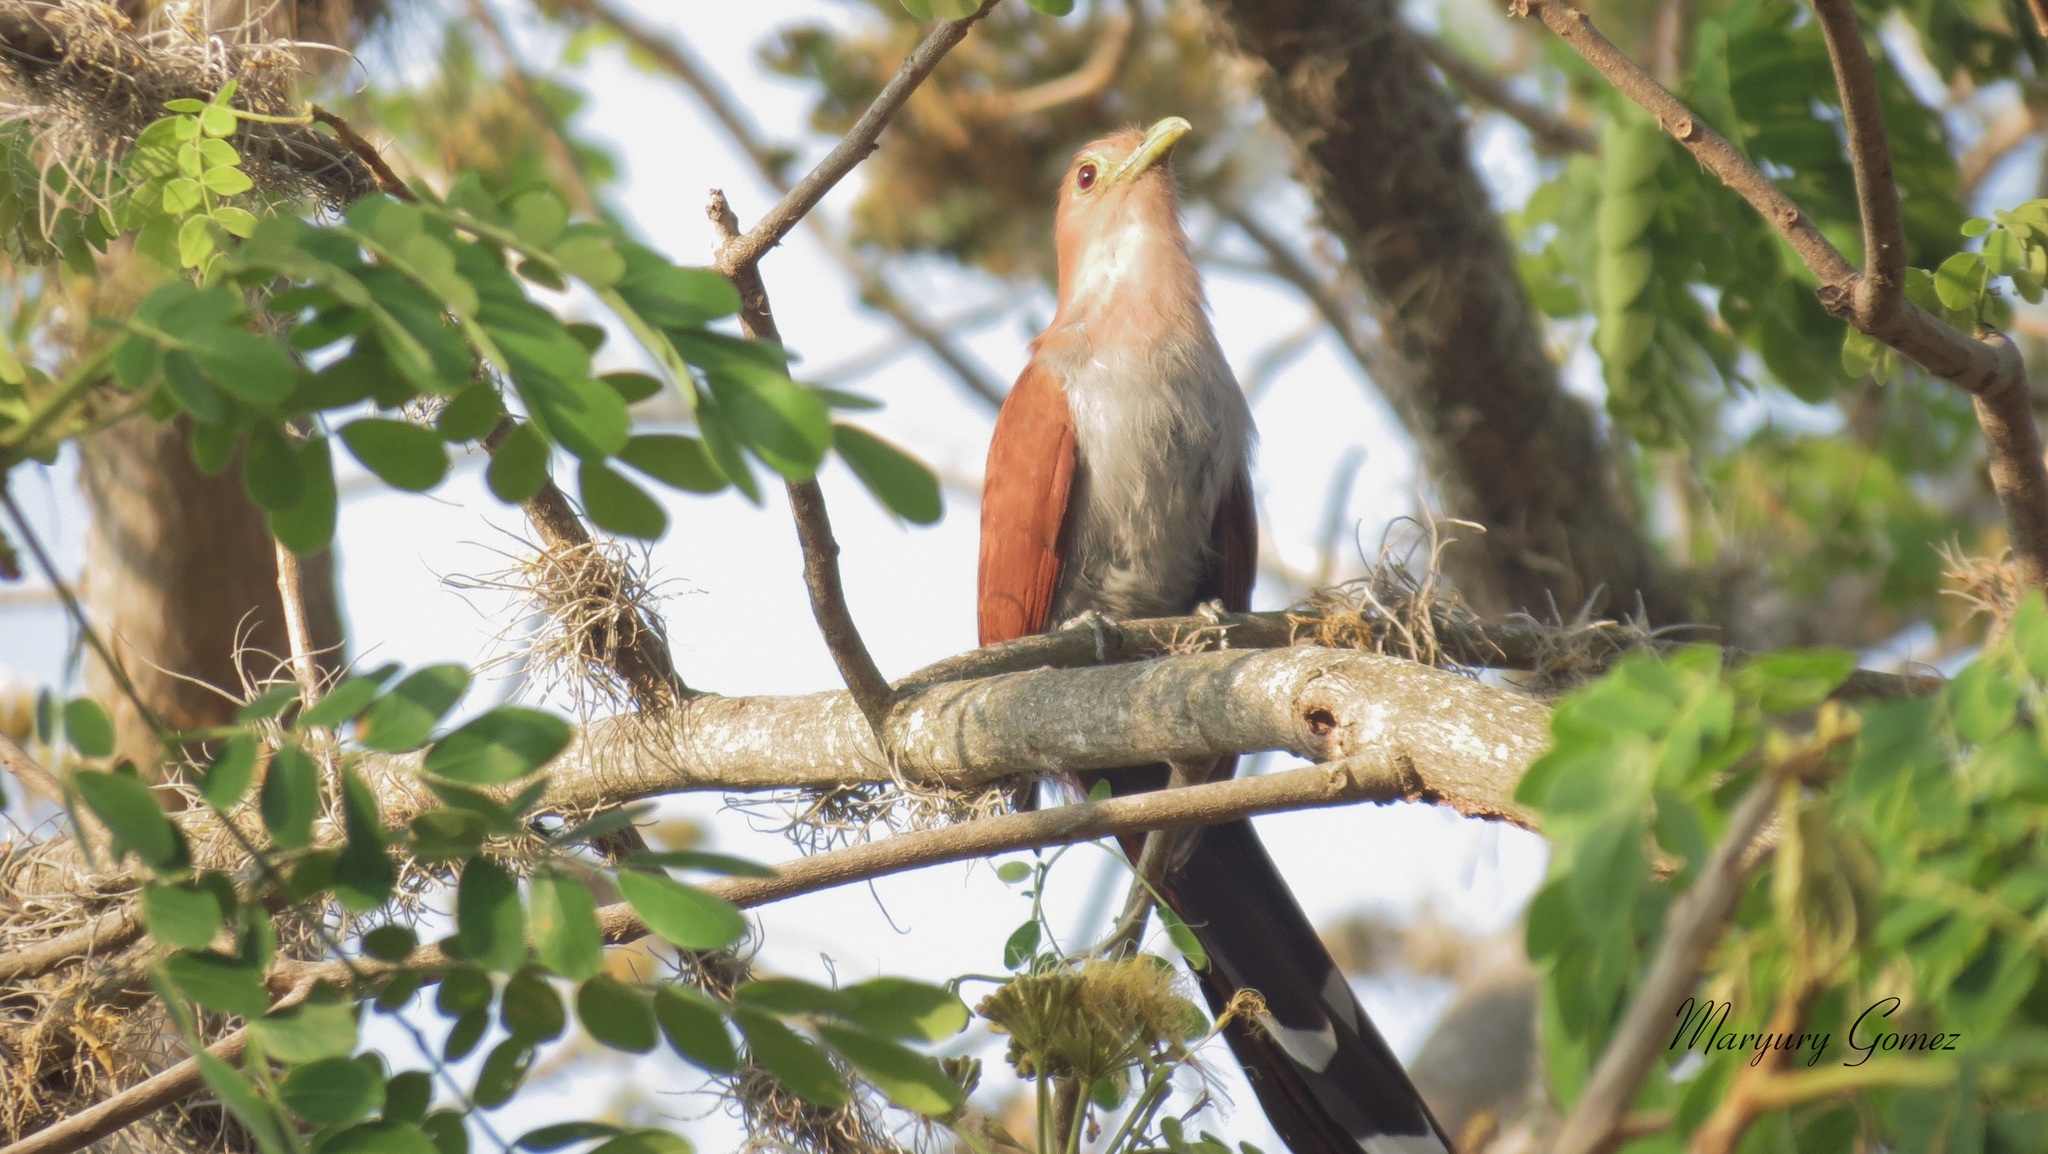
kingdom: Animalia
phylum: Chordata
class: Aves
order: Cuculiformes
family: Cuculidae
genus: Piaya
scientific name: Piaya cayana
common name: Squirrel cuckoo
